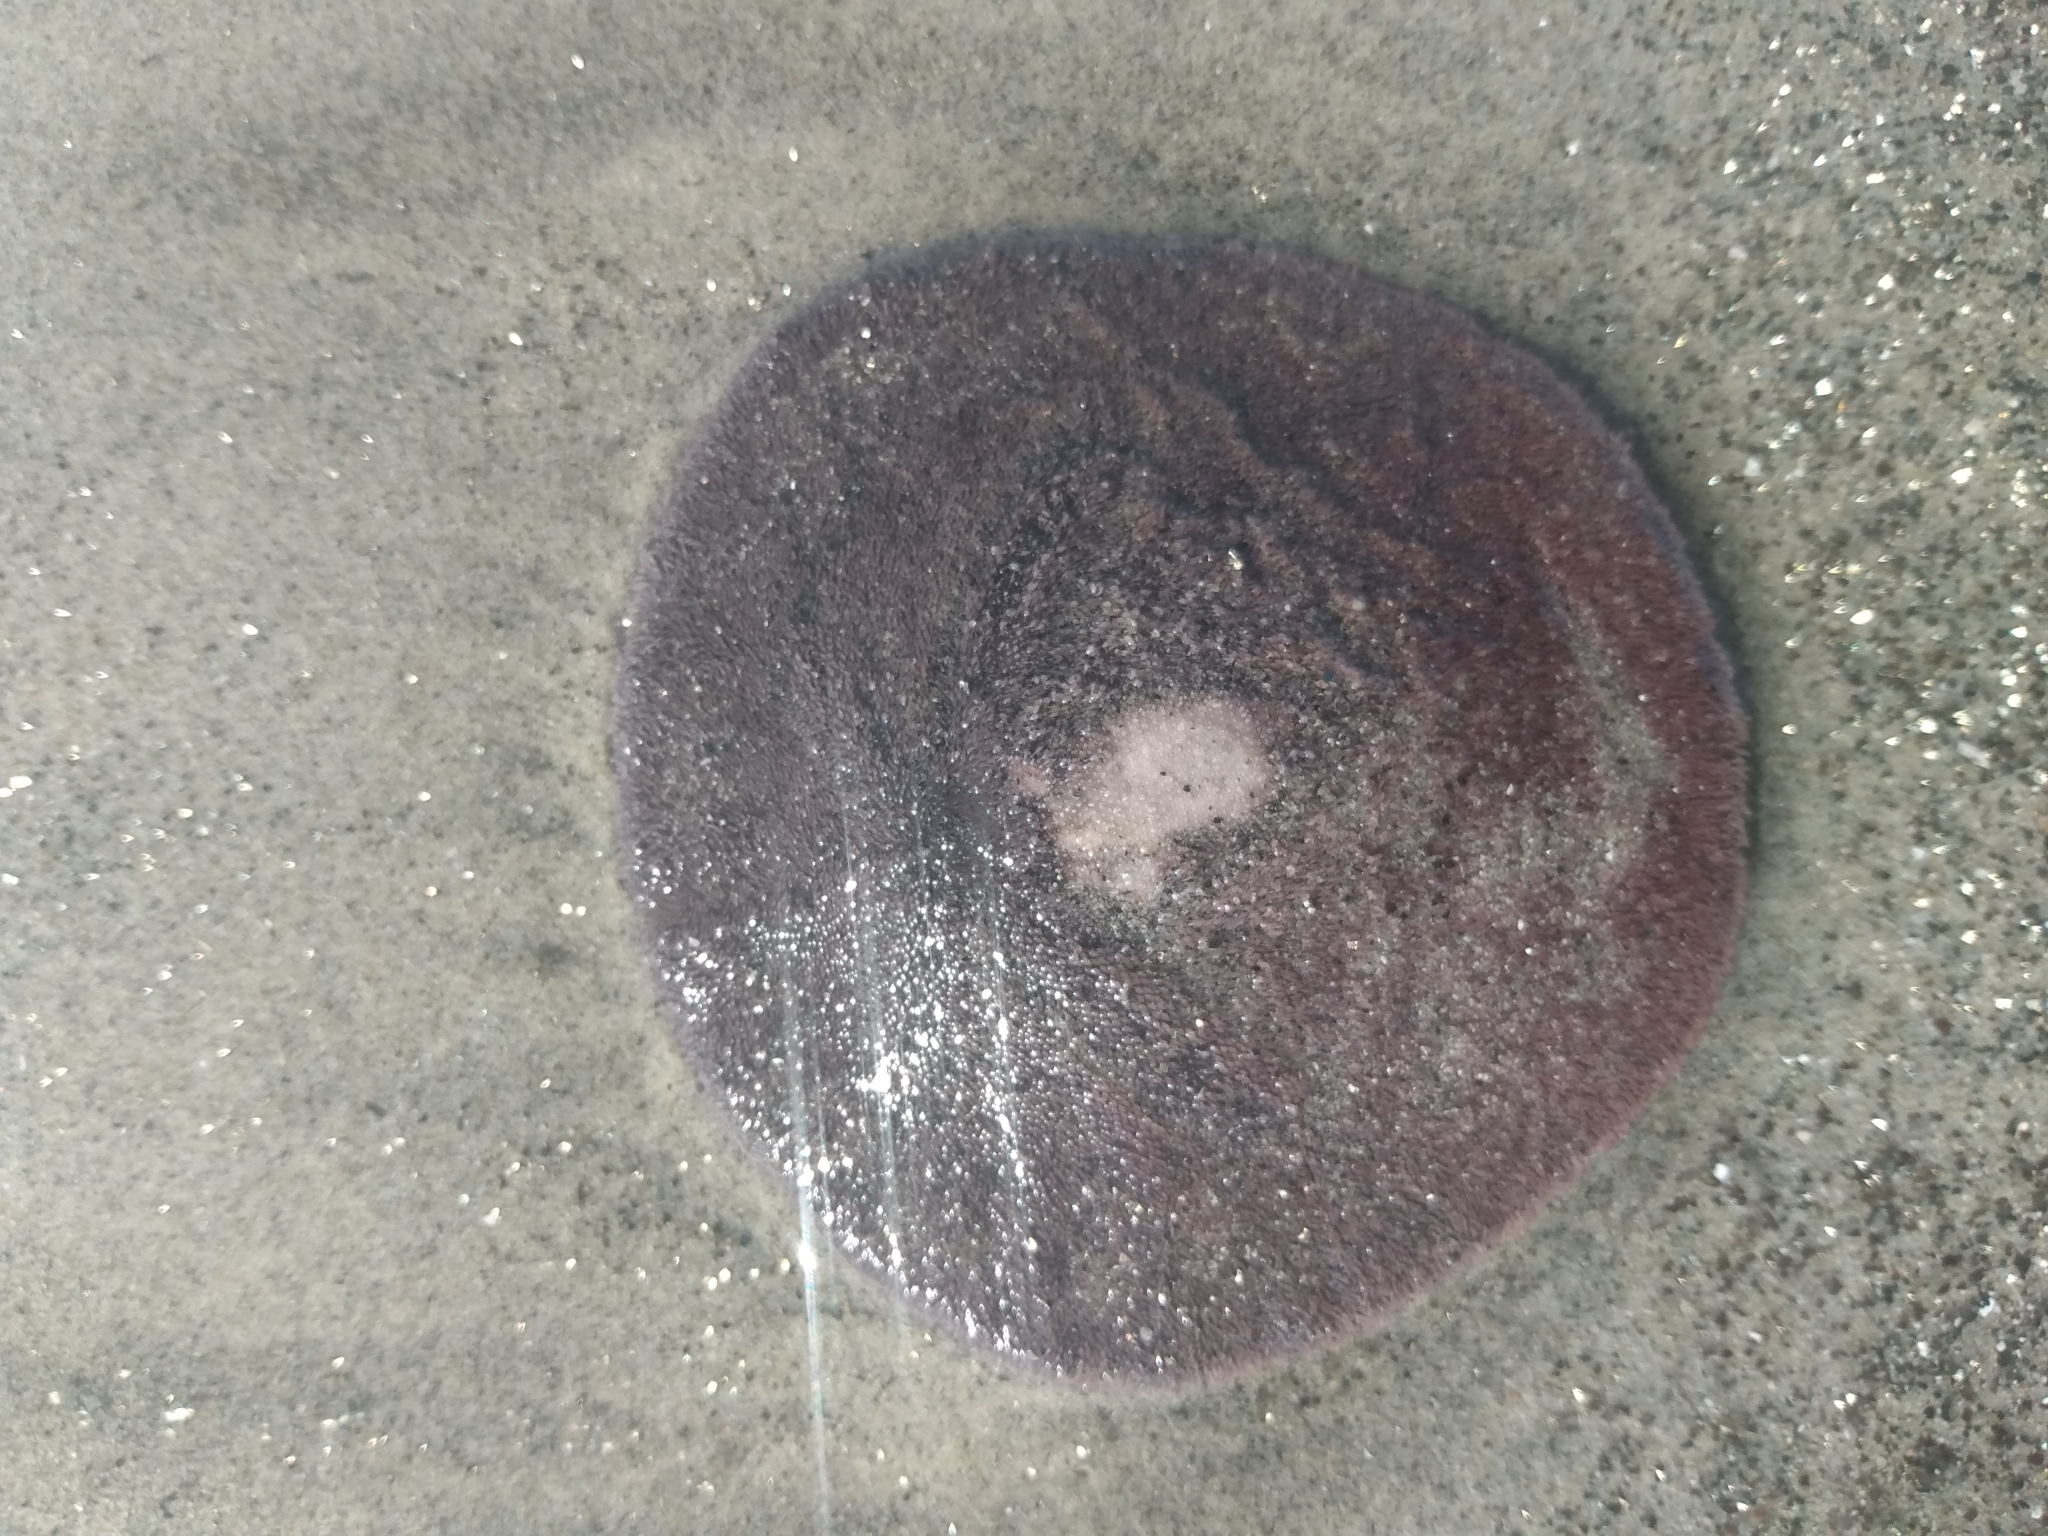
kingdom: Animalia
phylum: Echinodermata
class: Echinoidea
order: Echinolampadacea
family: Dendrasteridae
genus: Dendraster
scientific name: Dendraster excentricus
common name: Eccentric sand dollar sea urchin
